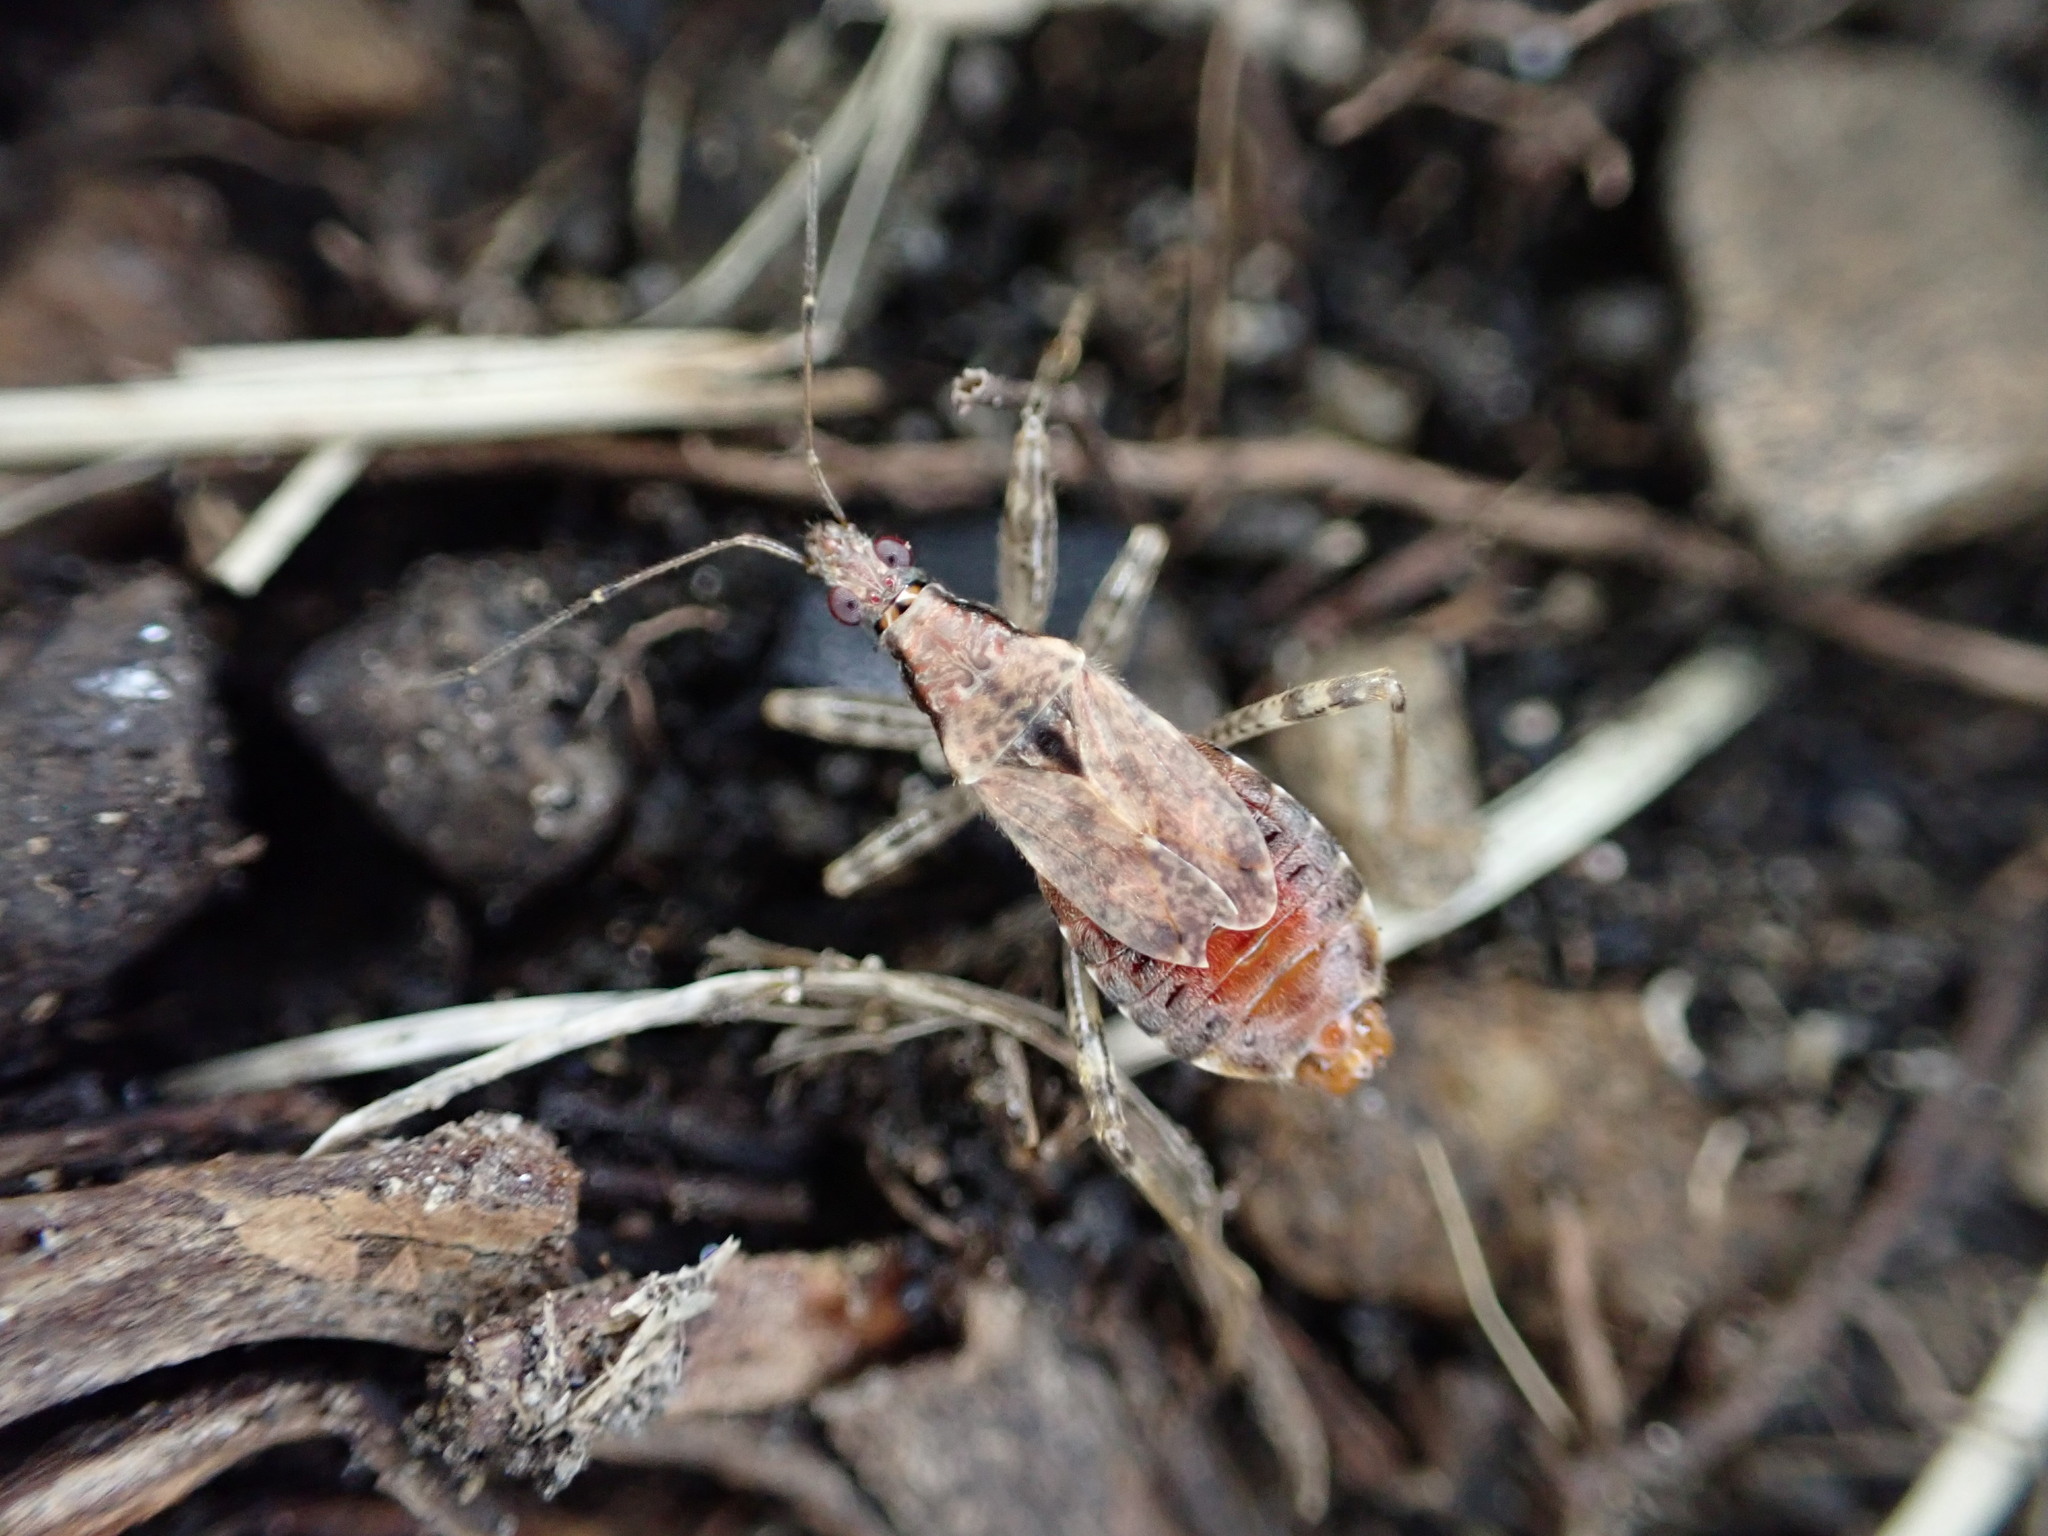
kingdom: Animalia
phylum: Arthropoda
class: Insecta
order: Hemiptera
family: Nabidae
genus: Himacerus
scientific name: Himacerus mirmicoides
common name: Ant damsel bug
